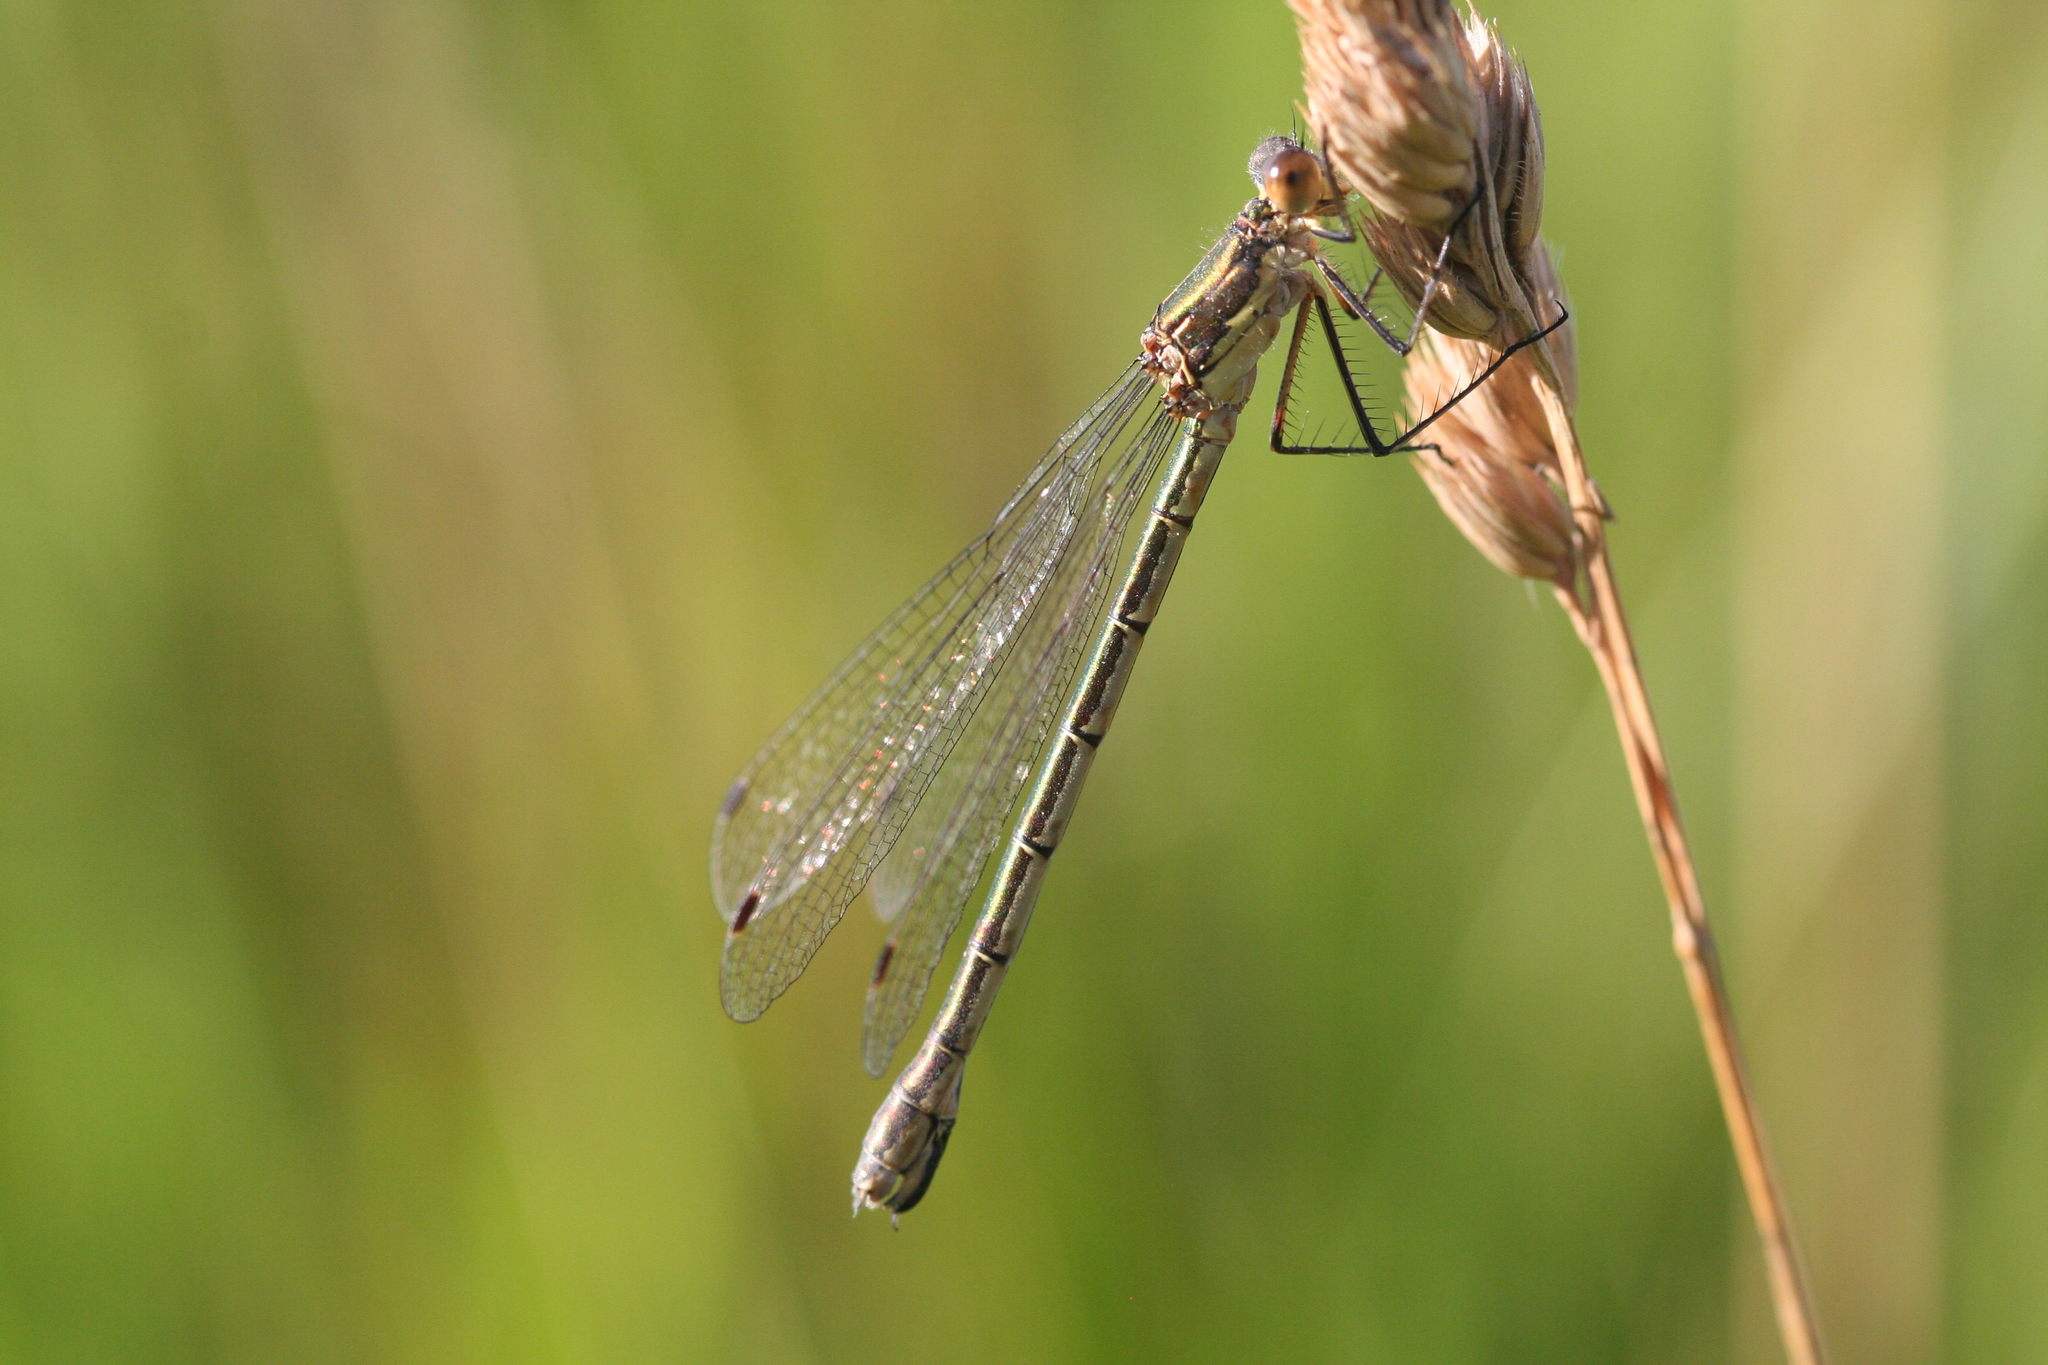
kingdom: Animalia
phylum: Arthropoda
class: Insecta
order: Odonata
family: Lestidae
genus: Lestes
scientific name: Lestes dryas
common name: Scarce emerald damselfly
